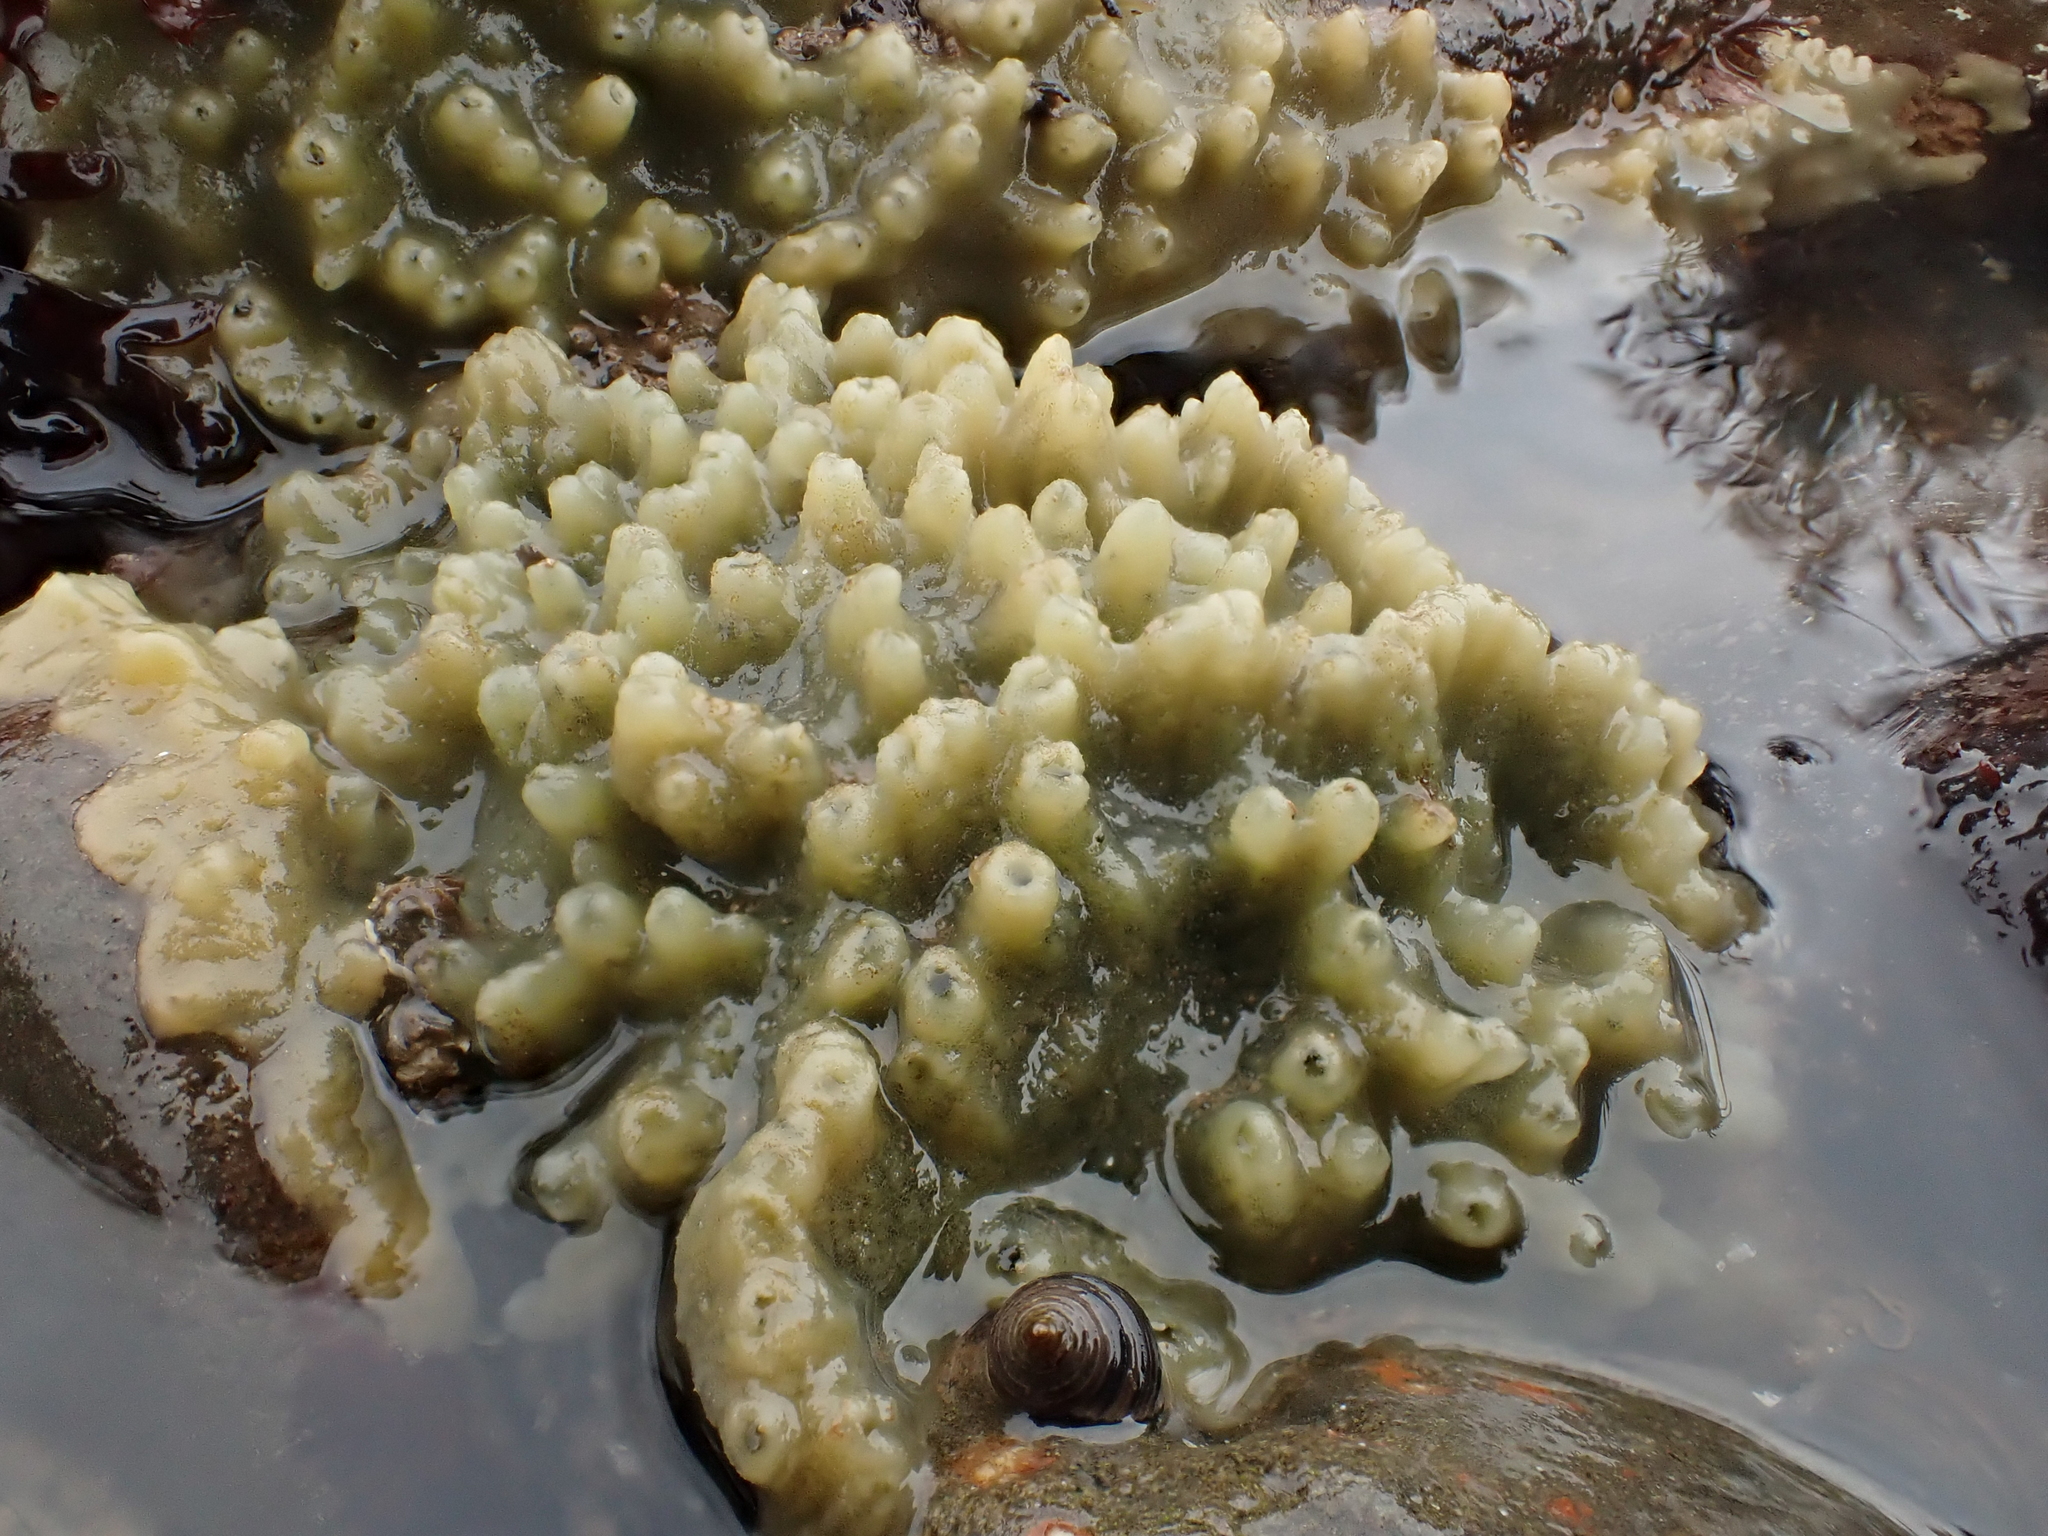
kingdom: Animalia
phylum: Porifera
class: Demospongiae
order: Suberitida
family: Halichondriidae
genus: Halichondria
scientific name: Halichondria panicea
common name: Breadcrumb sponge
